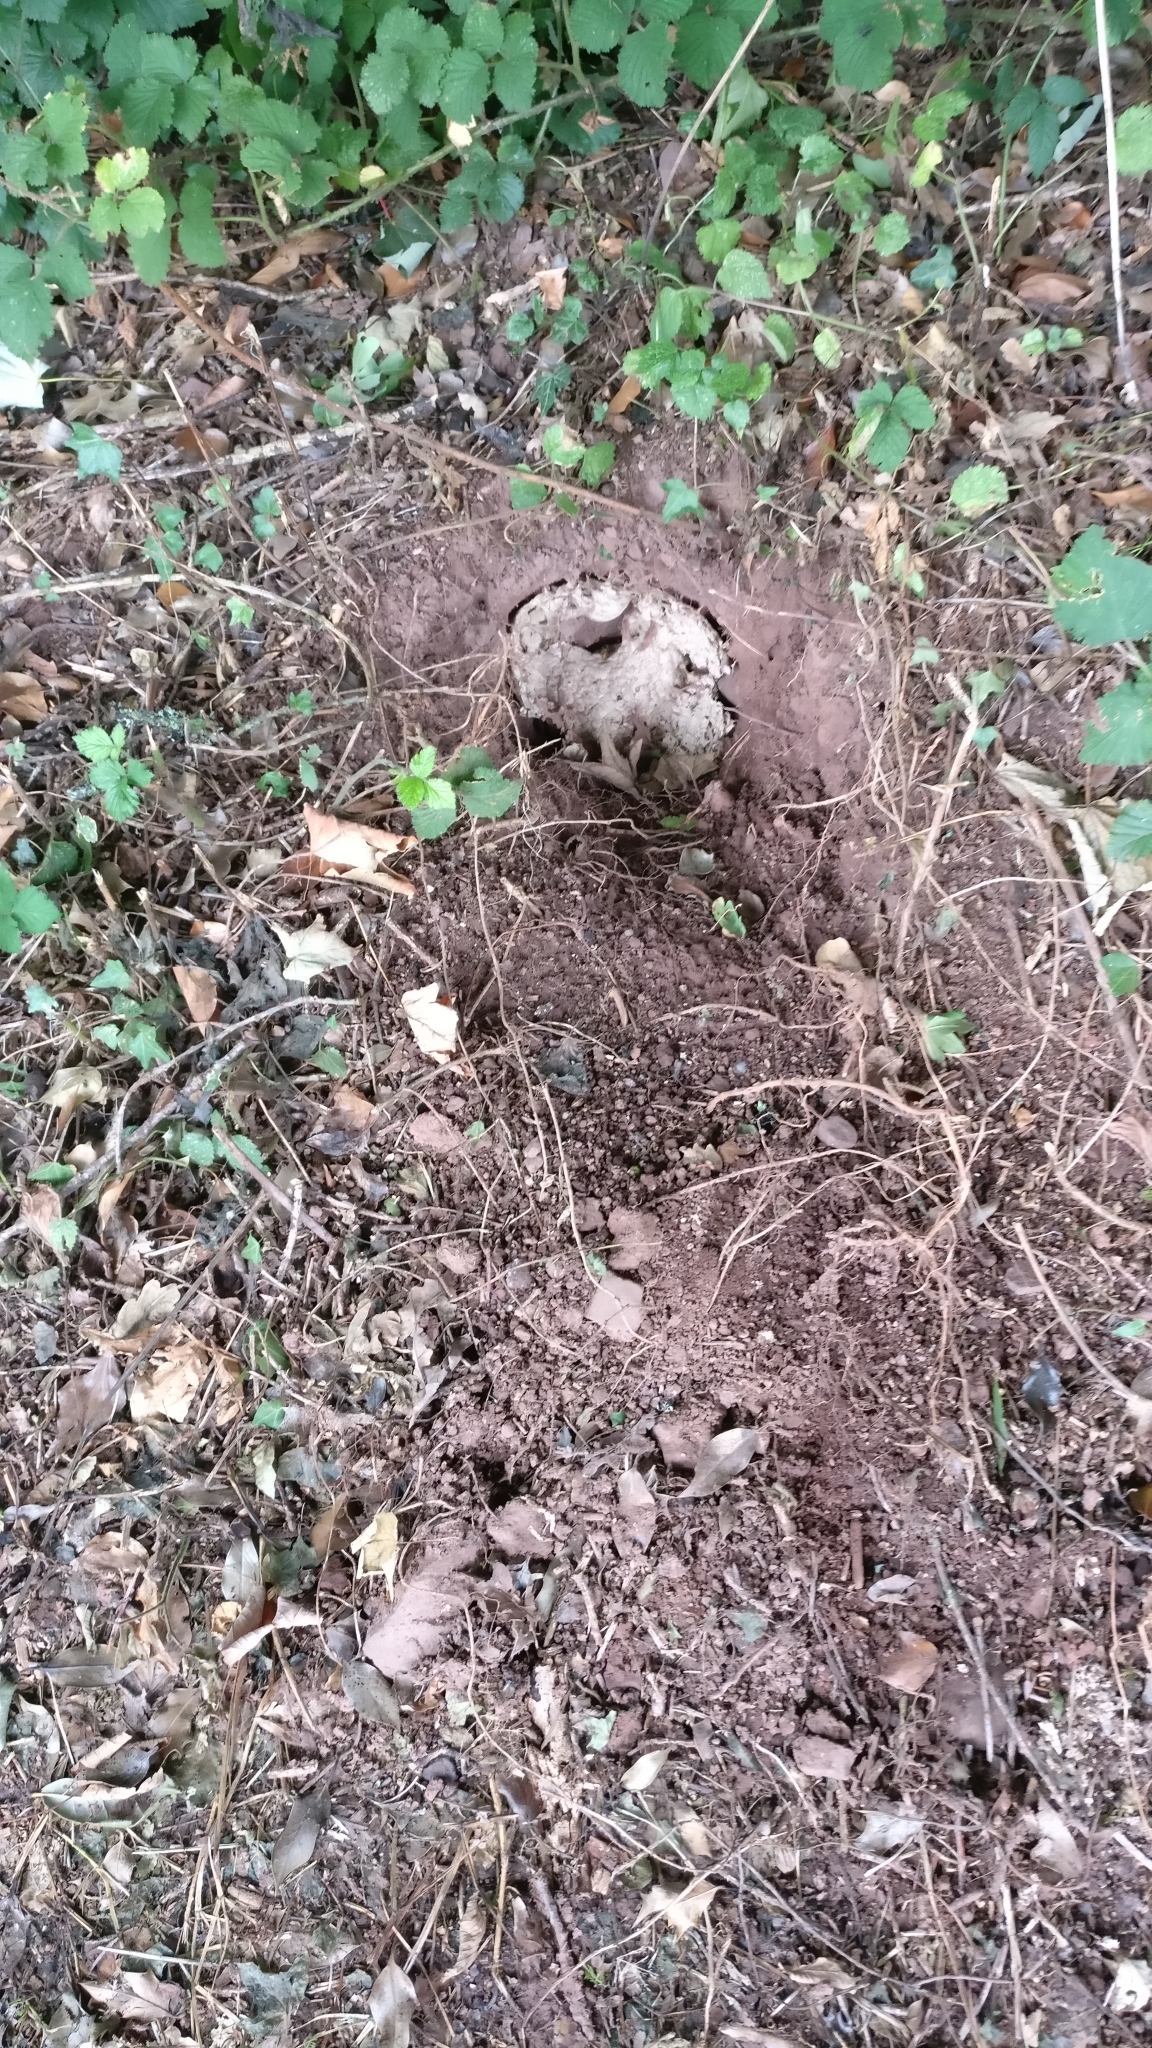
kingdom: Animalia
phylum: Arthropoda
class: Insecta
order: Hymenoptera
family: Vespidae
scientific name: Vespidae
